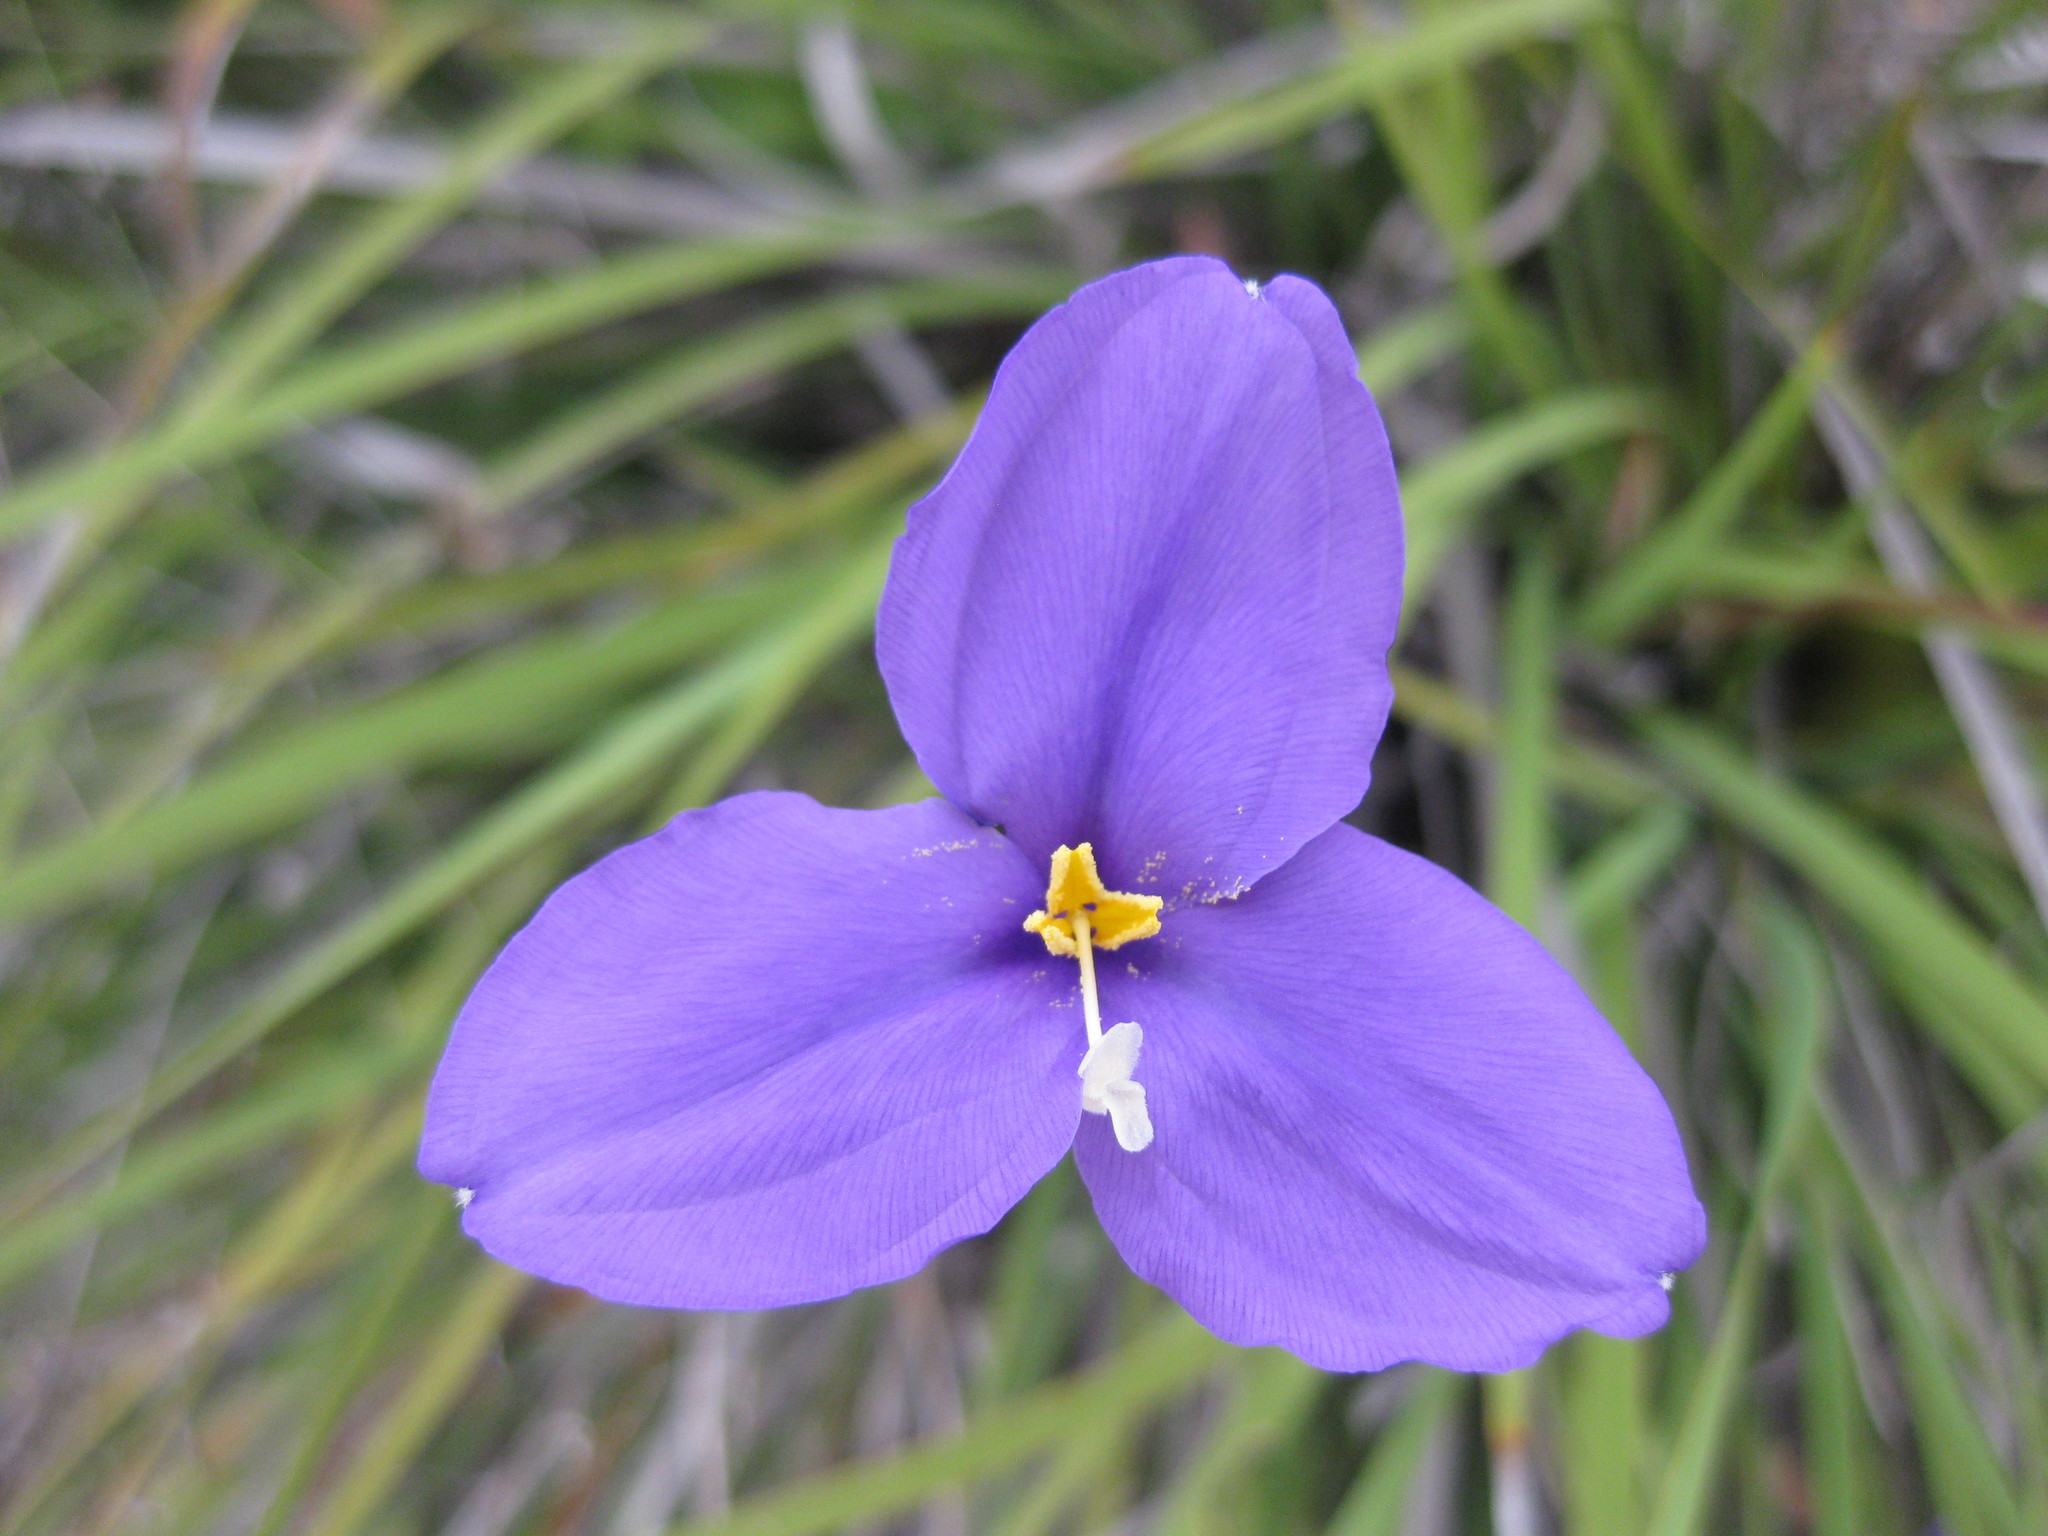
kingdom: Plantae
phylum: Tracheophyta
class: Liliopsida
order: Asparagales
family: Iridaceae
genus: Patersonia
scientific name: Patersonia occidentalis
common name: Long purple-flag
